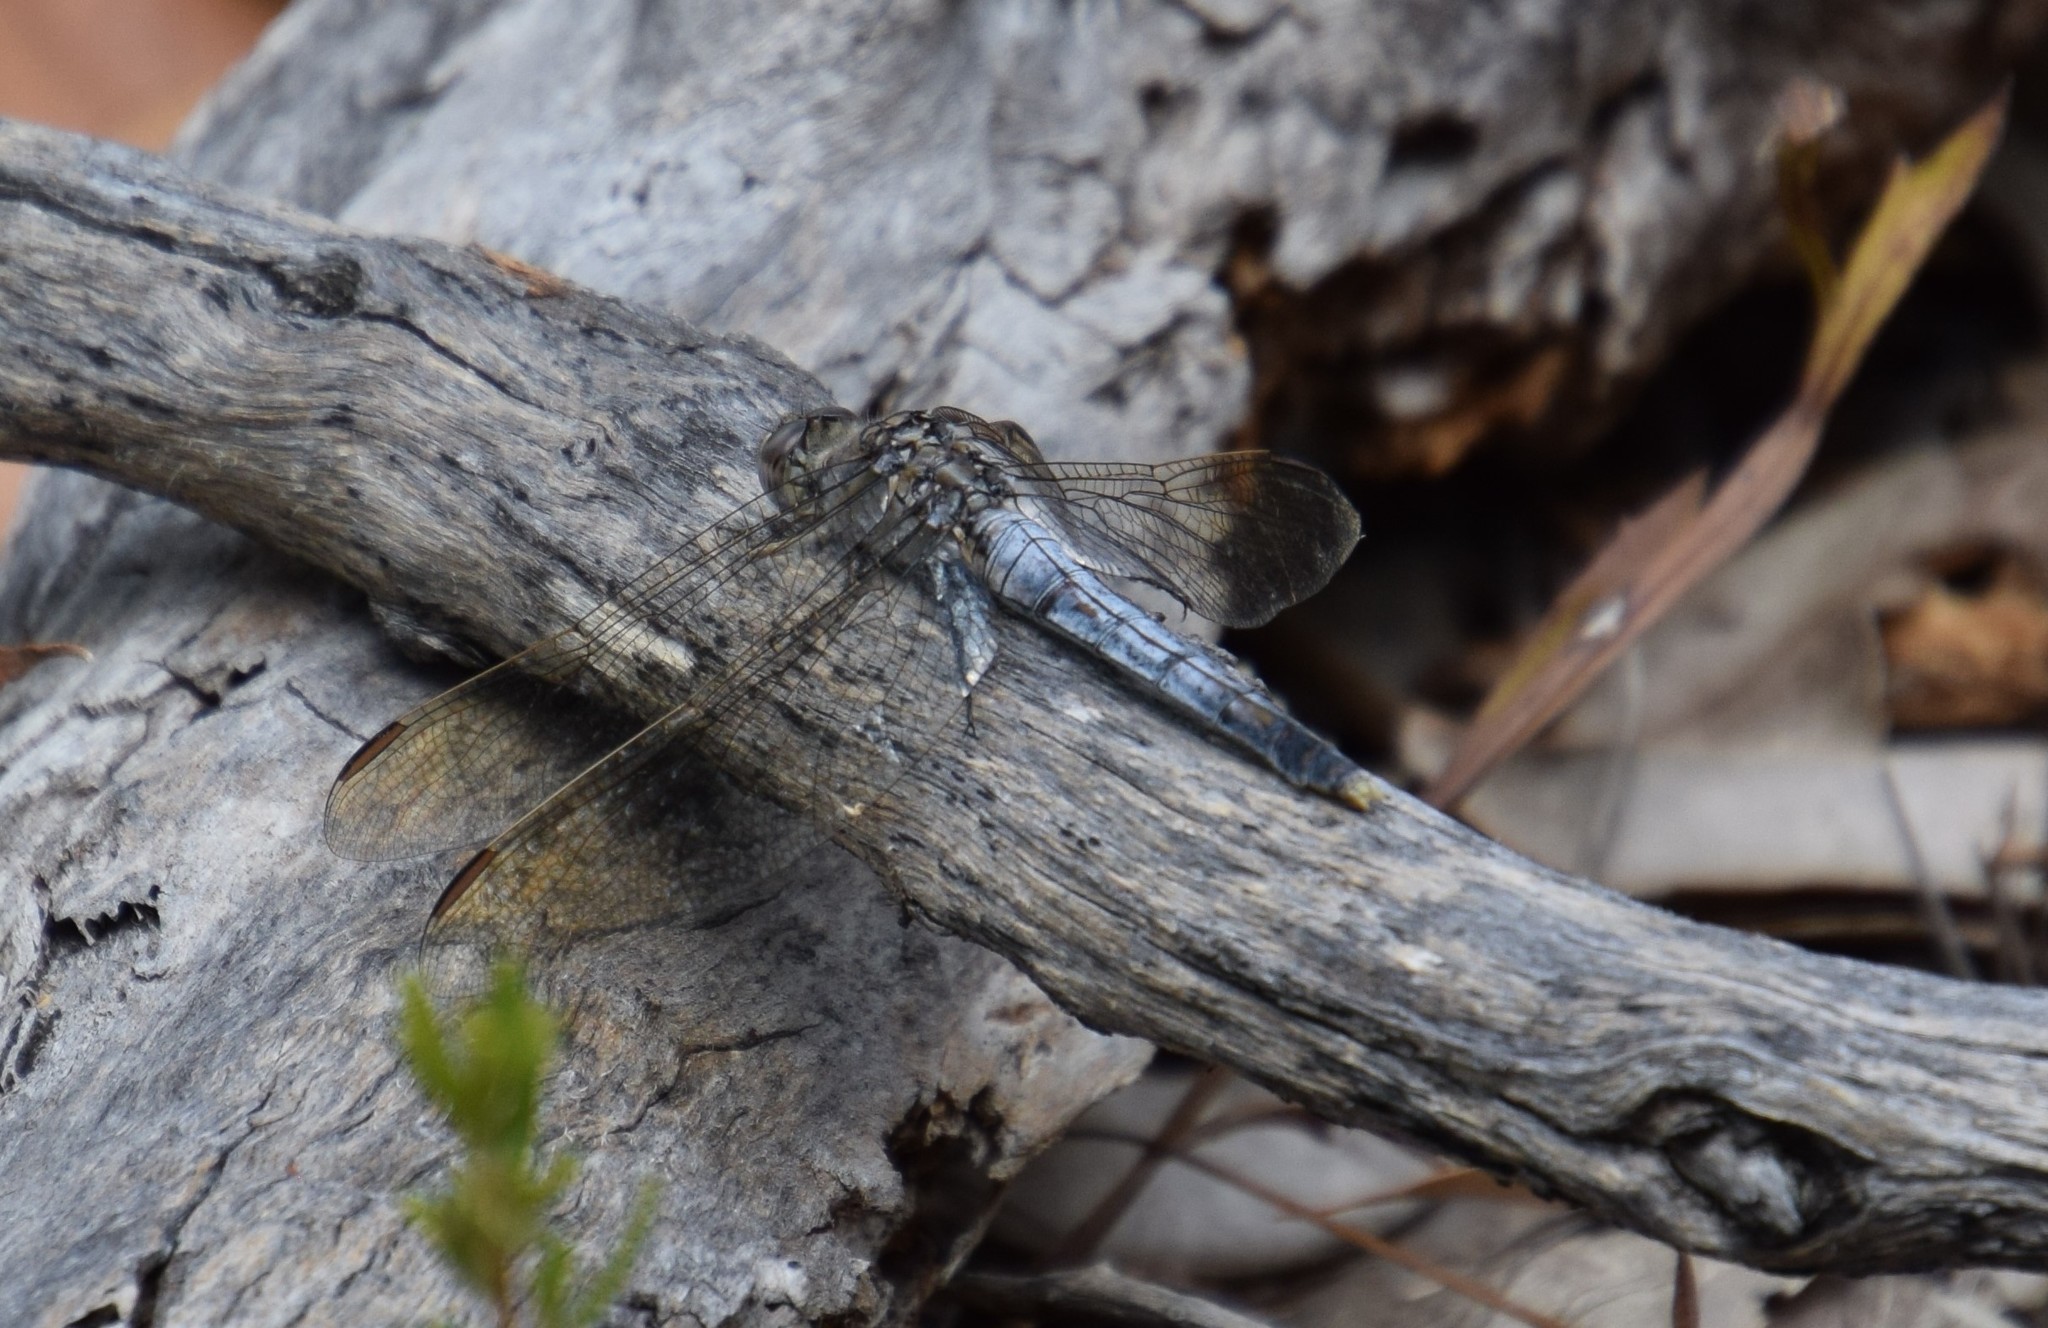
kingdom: Animalia
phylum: Arthropoda
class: Insecta
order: Odonata
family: Libellulidae
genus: Orthetrum
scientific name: Orthetrum caledonicum
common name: Blue skimmer
